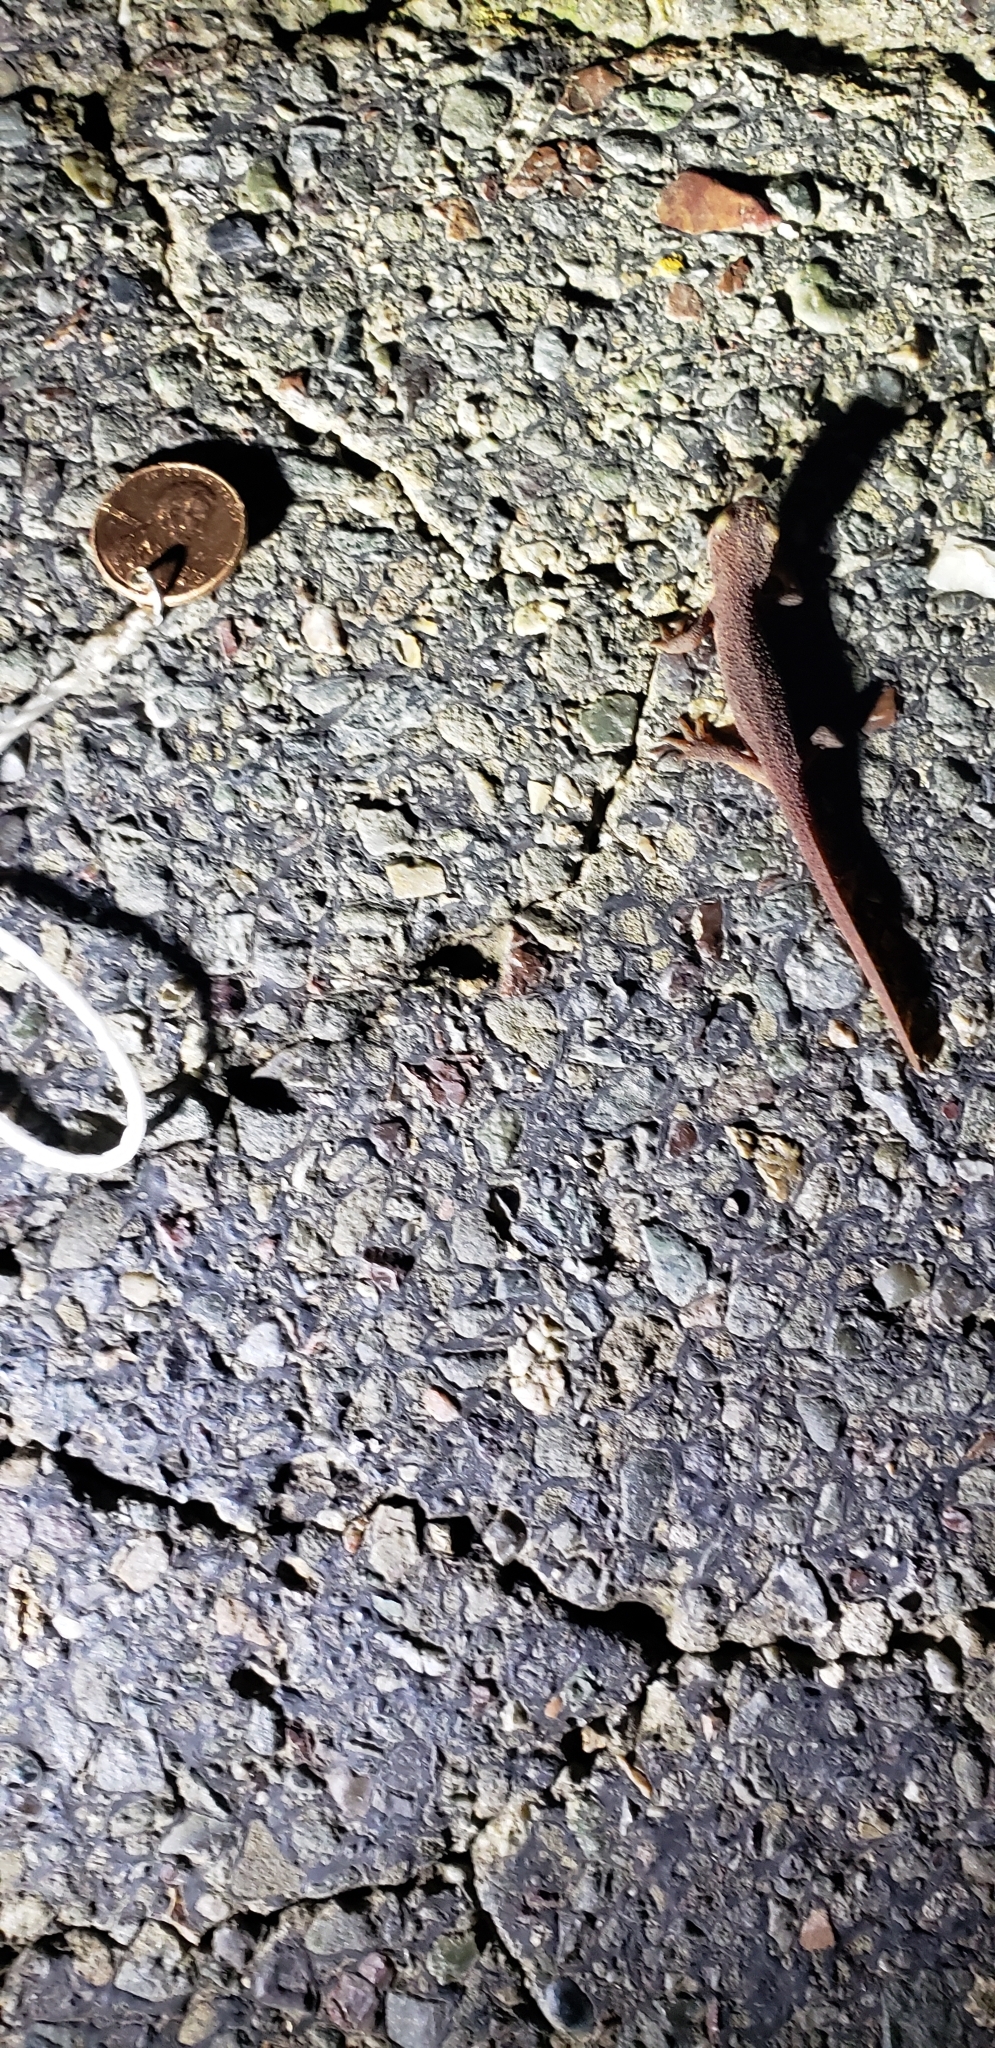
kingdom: Animalia
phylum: Chordata
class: Amphibia
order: Caudata
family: Salamandridae
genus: Taricha
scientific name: Taricha torosa
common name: California newt
